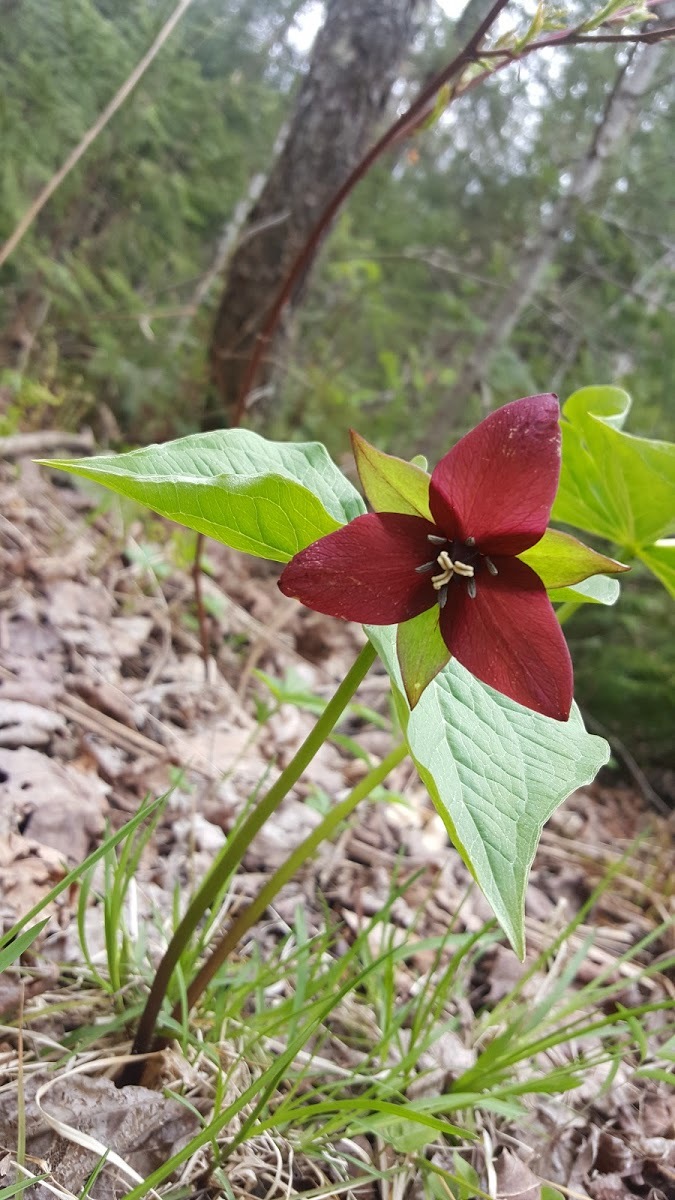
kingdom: Plantae
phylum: Tracheophyta
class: Liliopsida
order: Liliales
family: Melanthiaceae
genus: Trillium
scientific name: Trillium erectum
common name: Purple trillium
